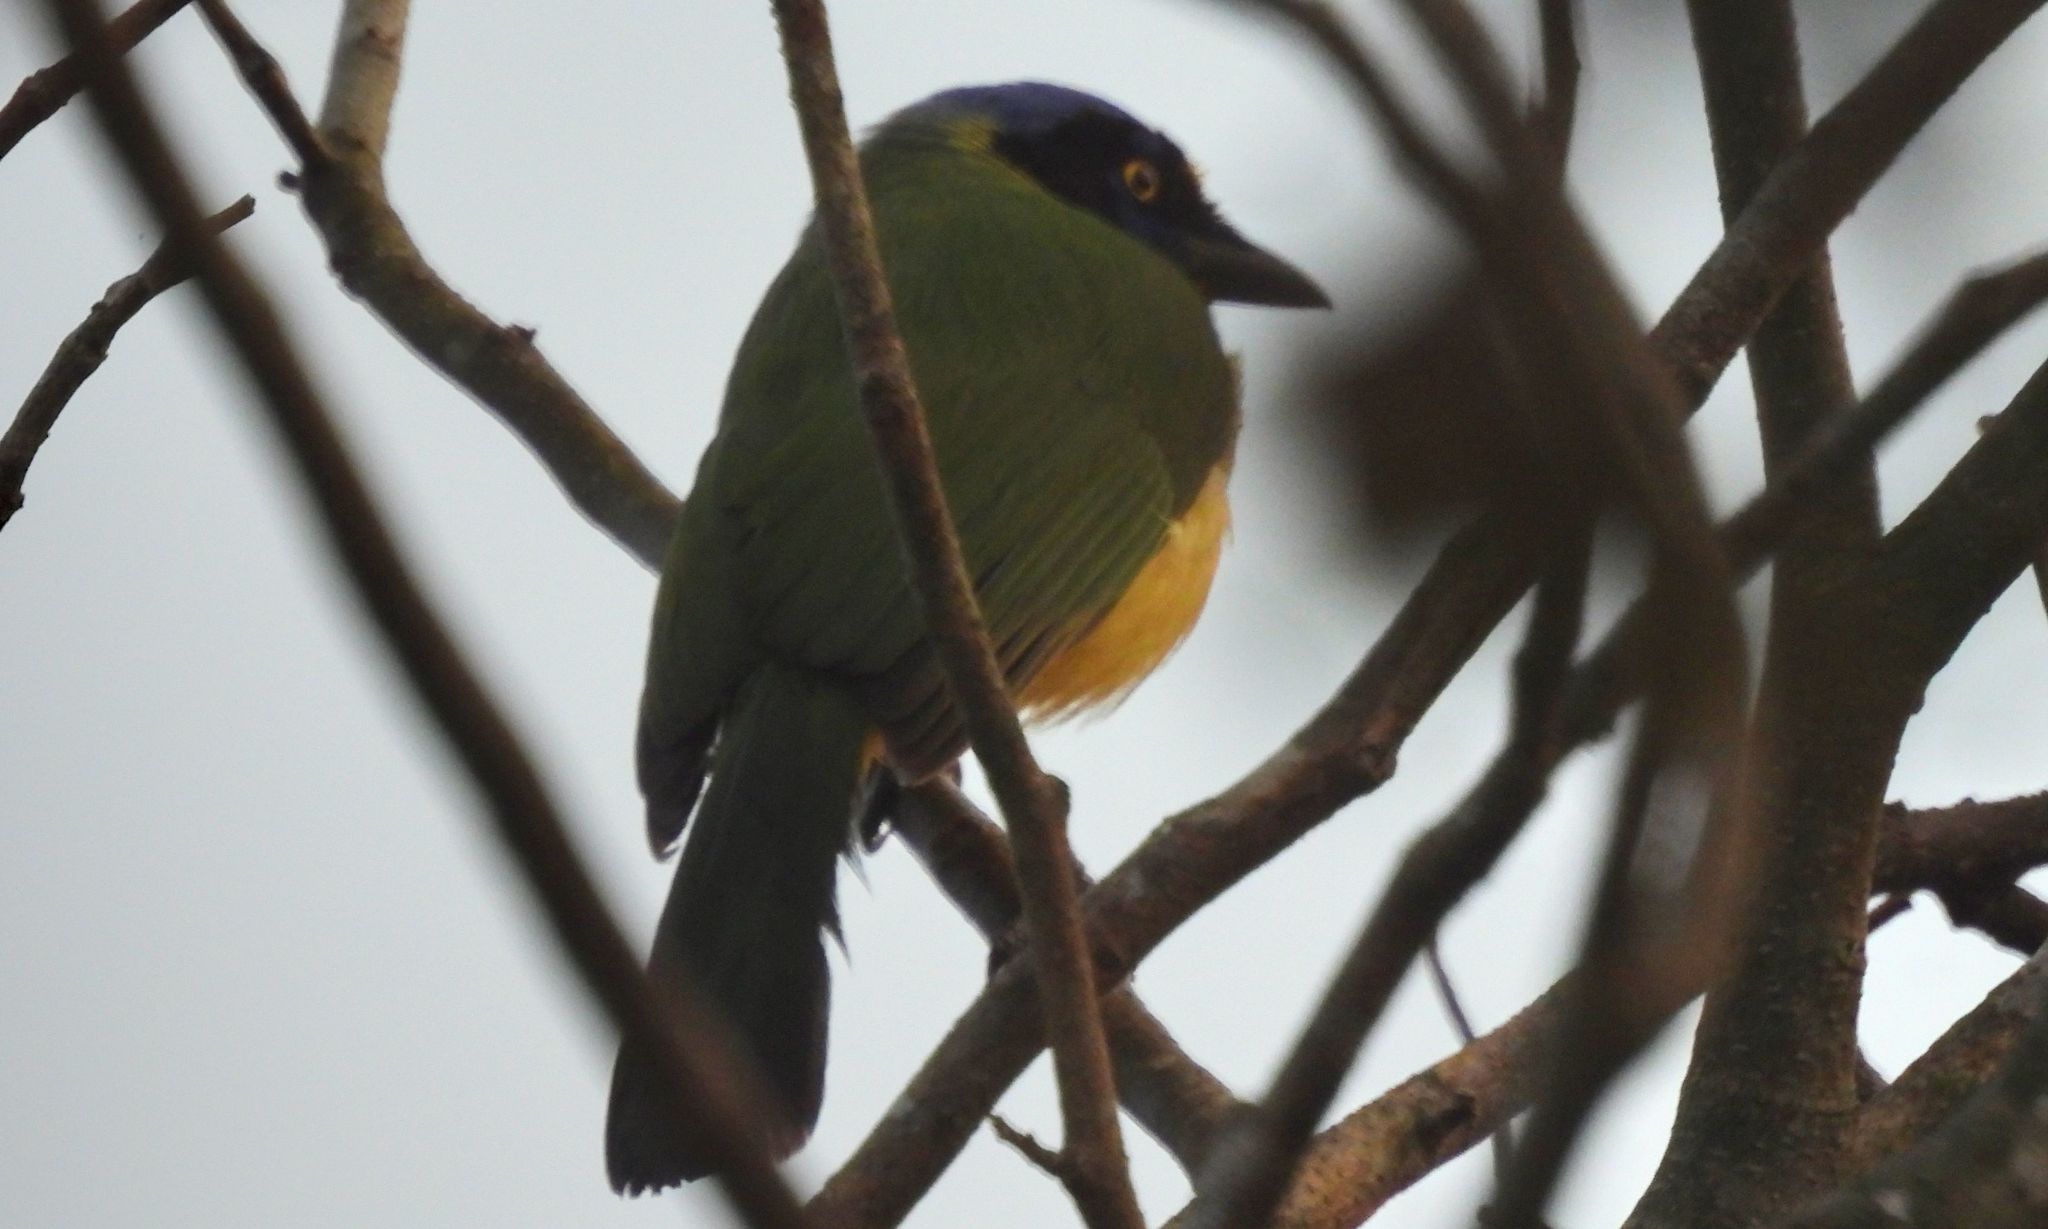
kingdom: Animalia
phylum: Chordata
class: Aves
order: Passeriformes
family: Corvidae
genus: Cyanocorax
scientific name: Cyanocorax yncas
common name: Green jay
